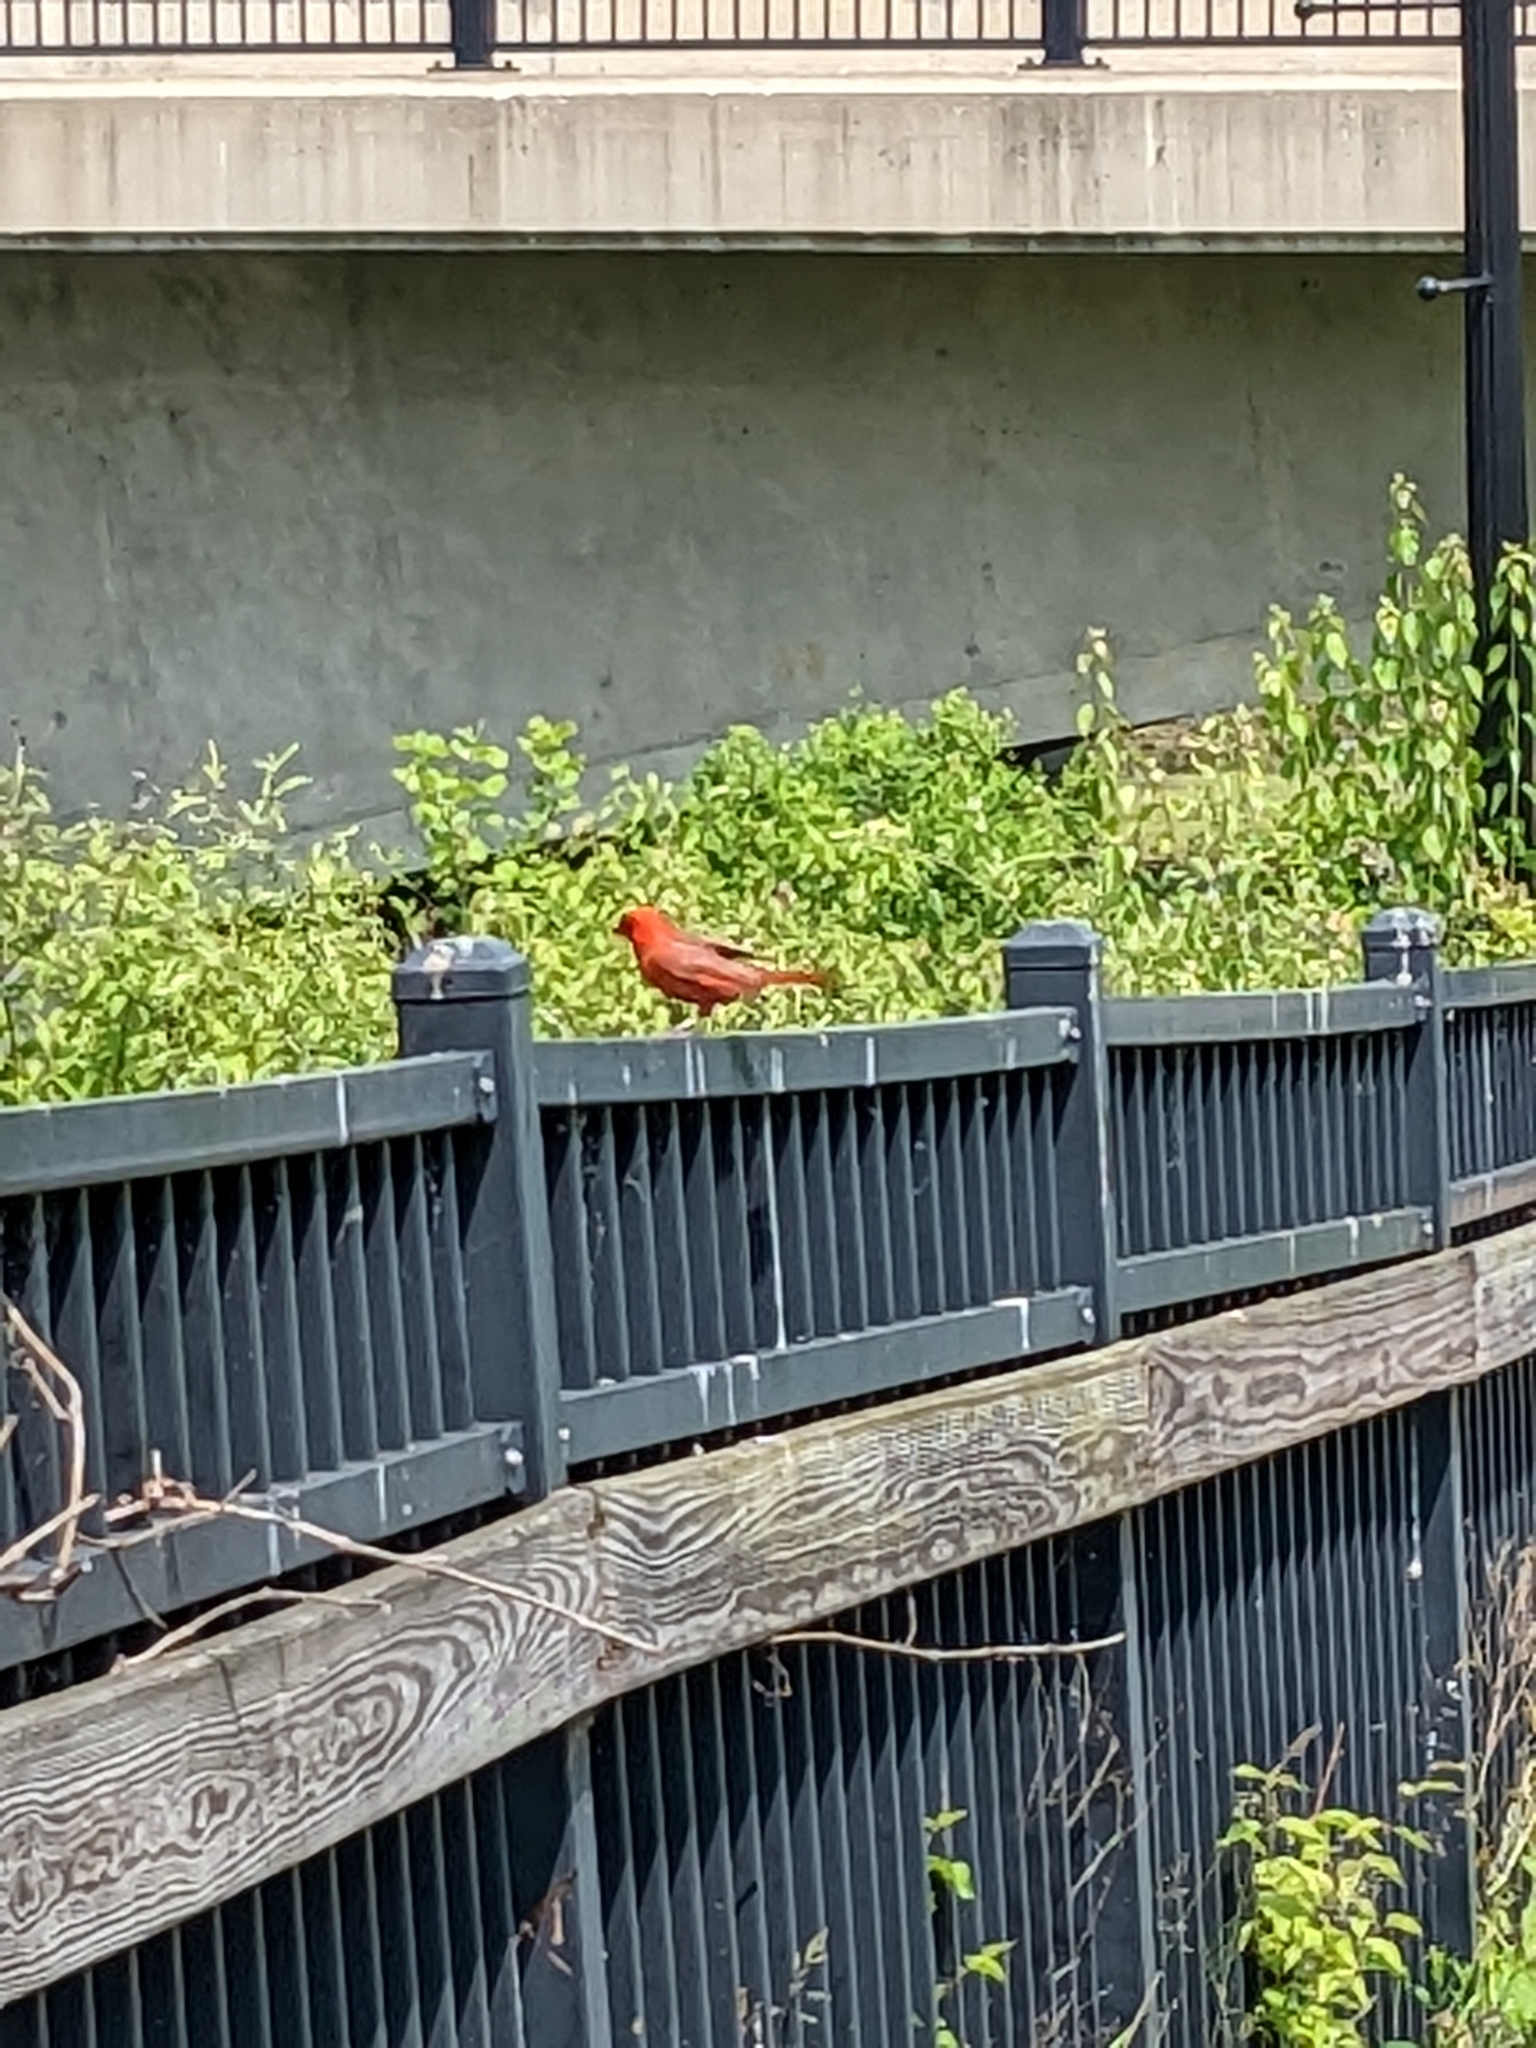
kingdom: Animalia
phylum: Chordata
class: Aves
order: Passeriformes
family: Cardinalidae
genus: Cardinalis
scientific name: Cardinalis cardinalis
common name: Northern cardinal
